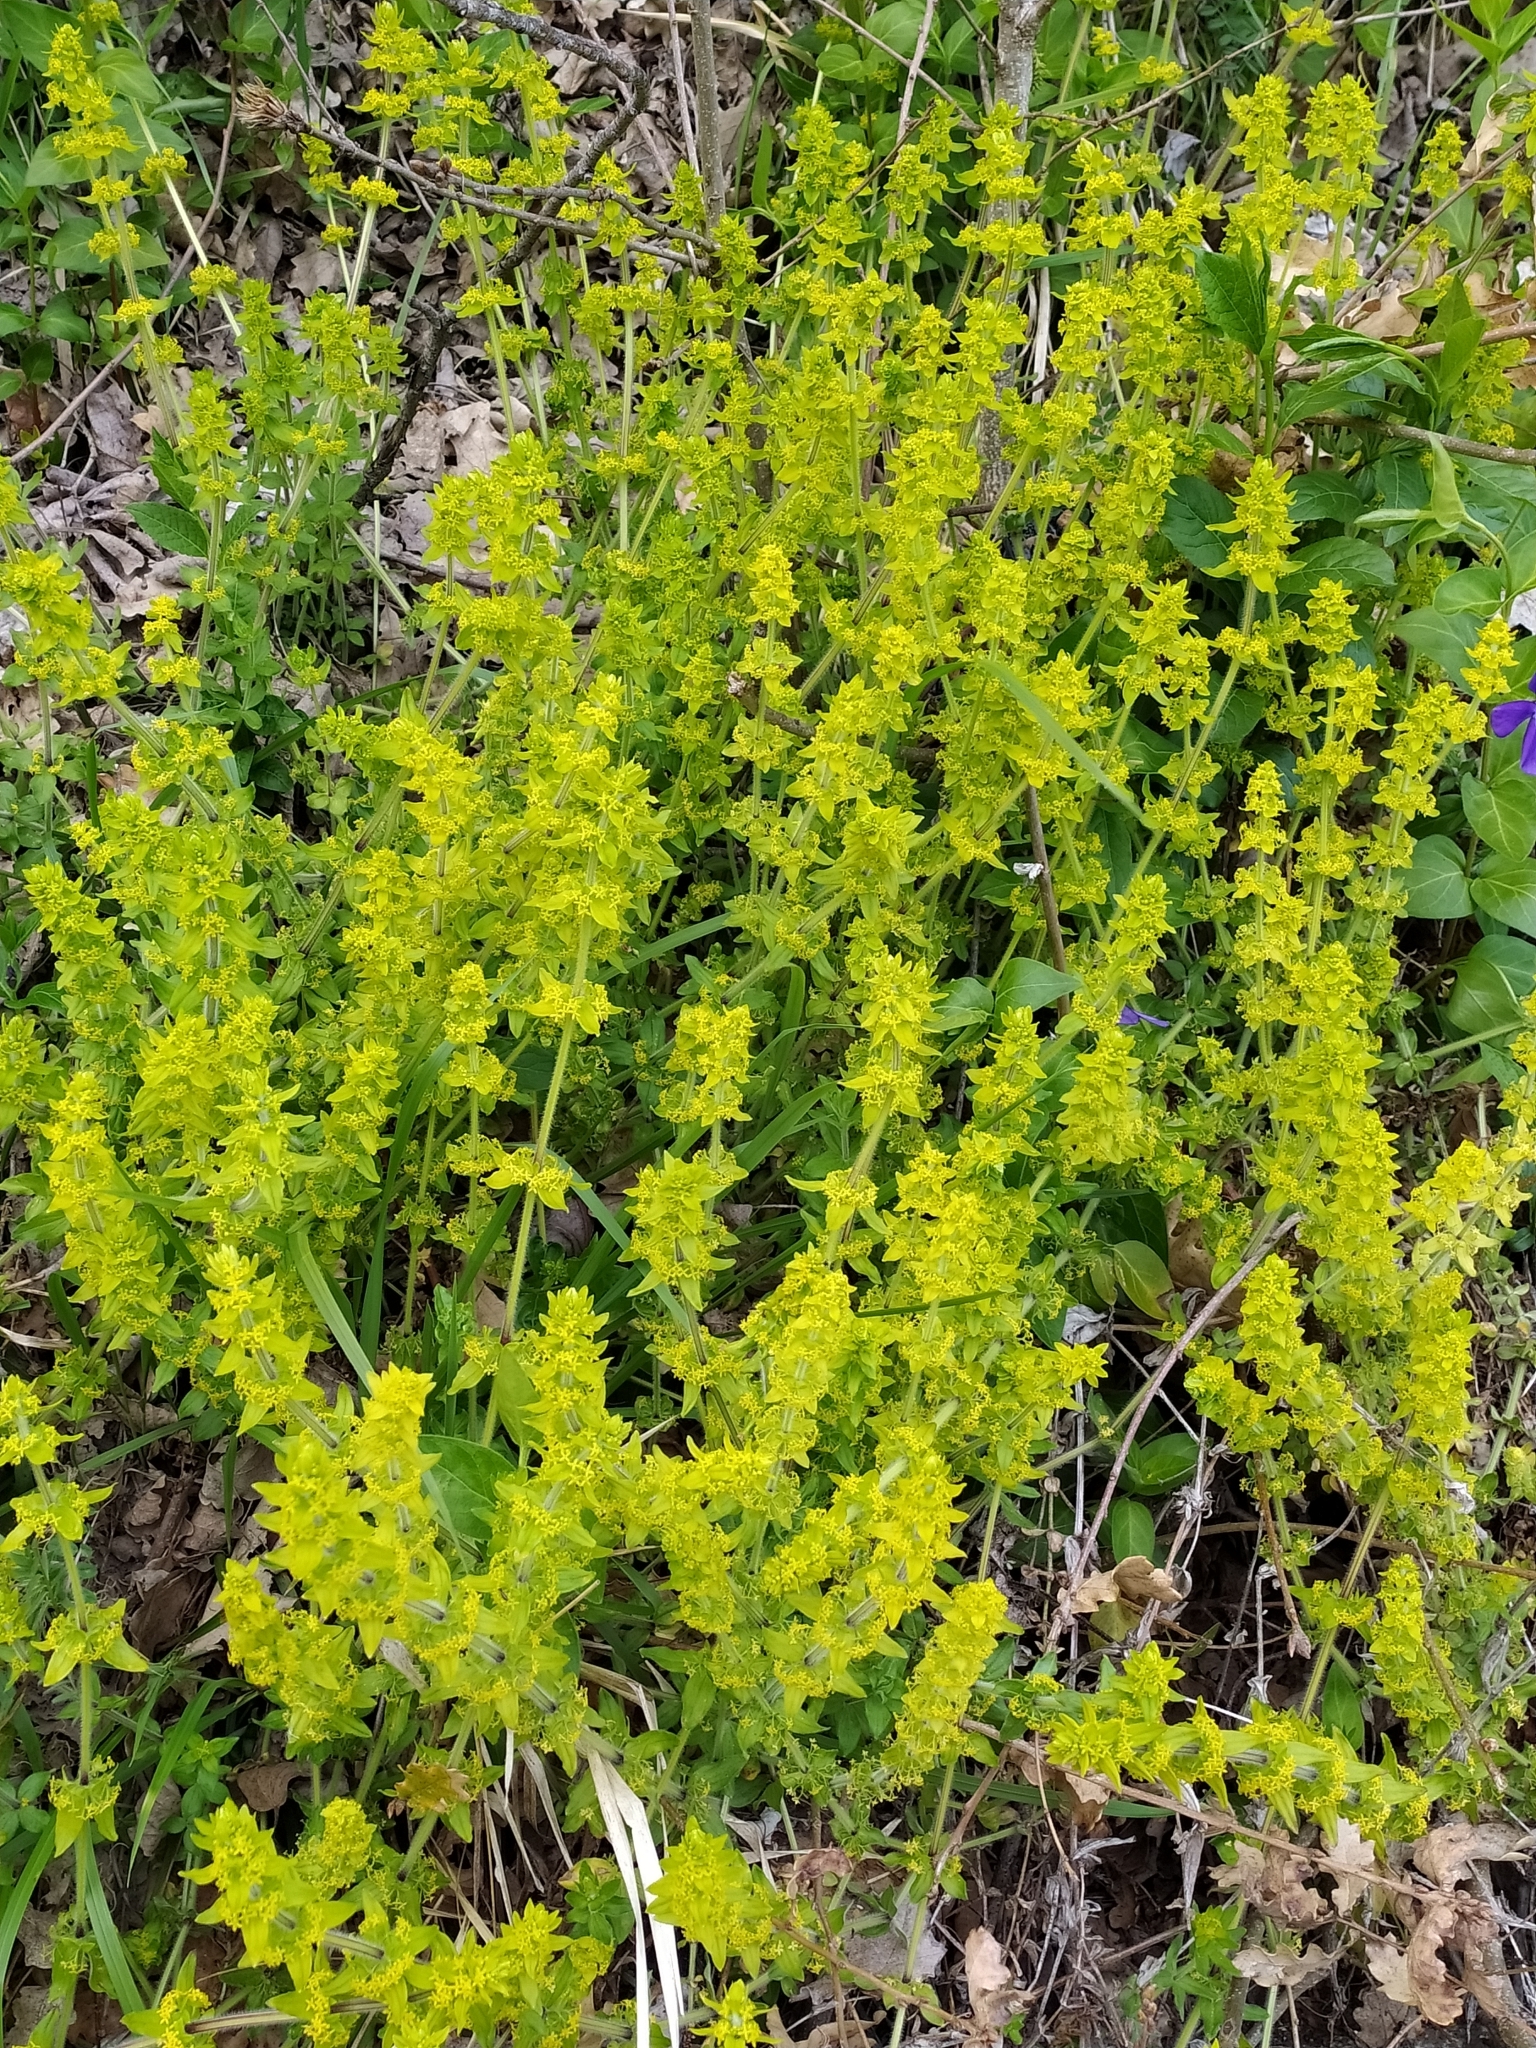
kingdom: Plantae
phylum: Tracheophyta
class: Magnoliopsida
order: Gentianales
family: Rubiaceae
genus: Cruciata
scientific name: Cruciata laevipes
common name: Crosswort
